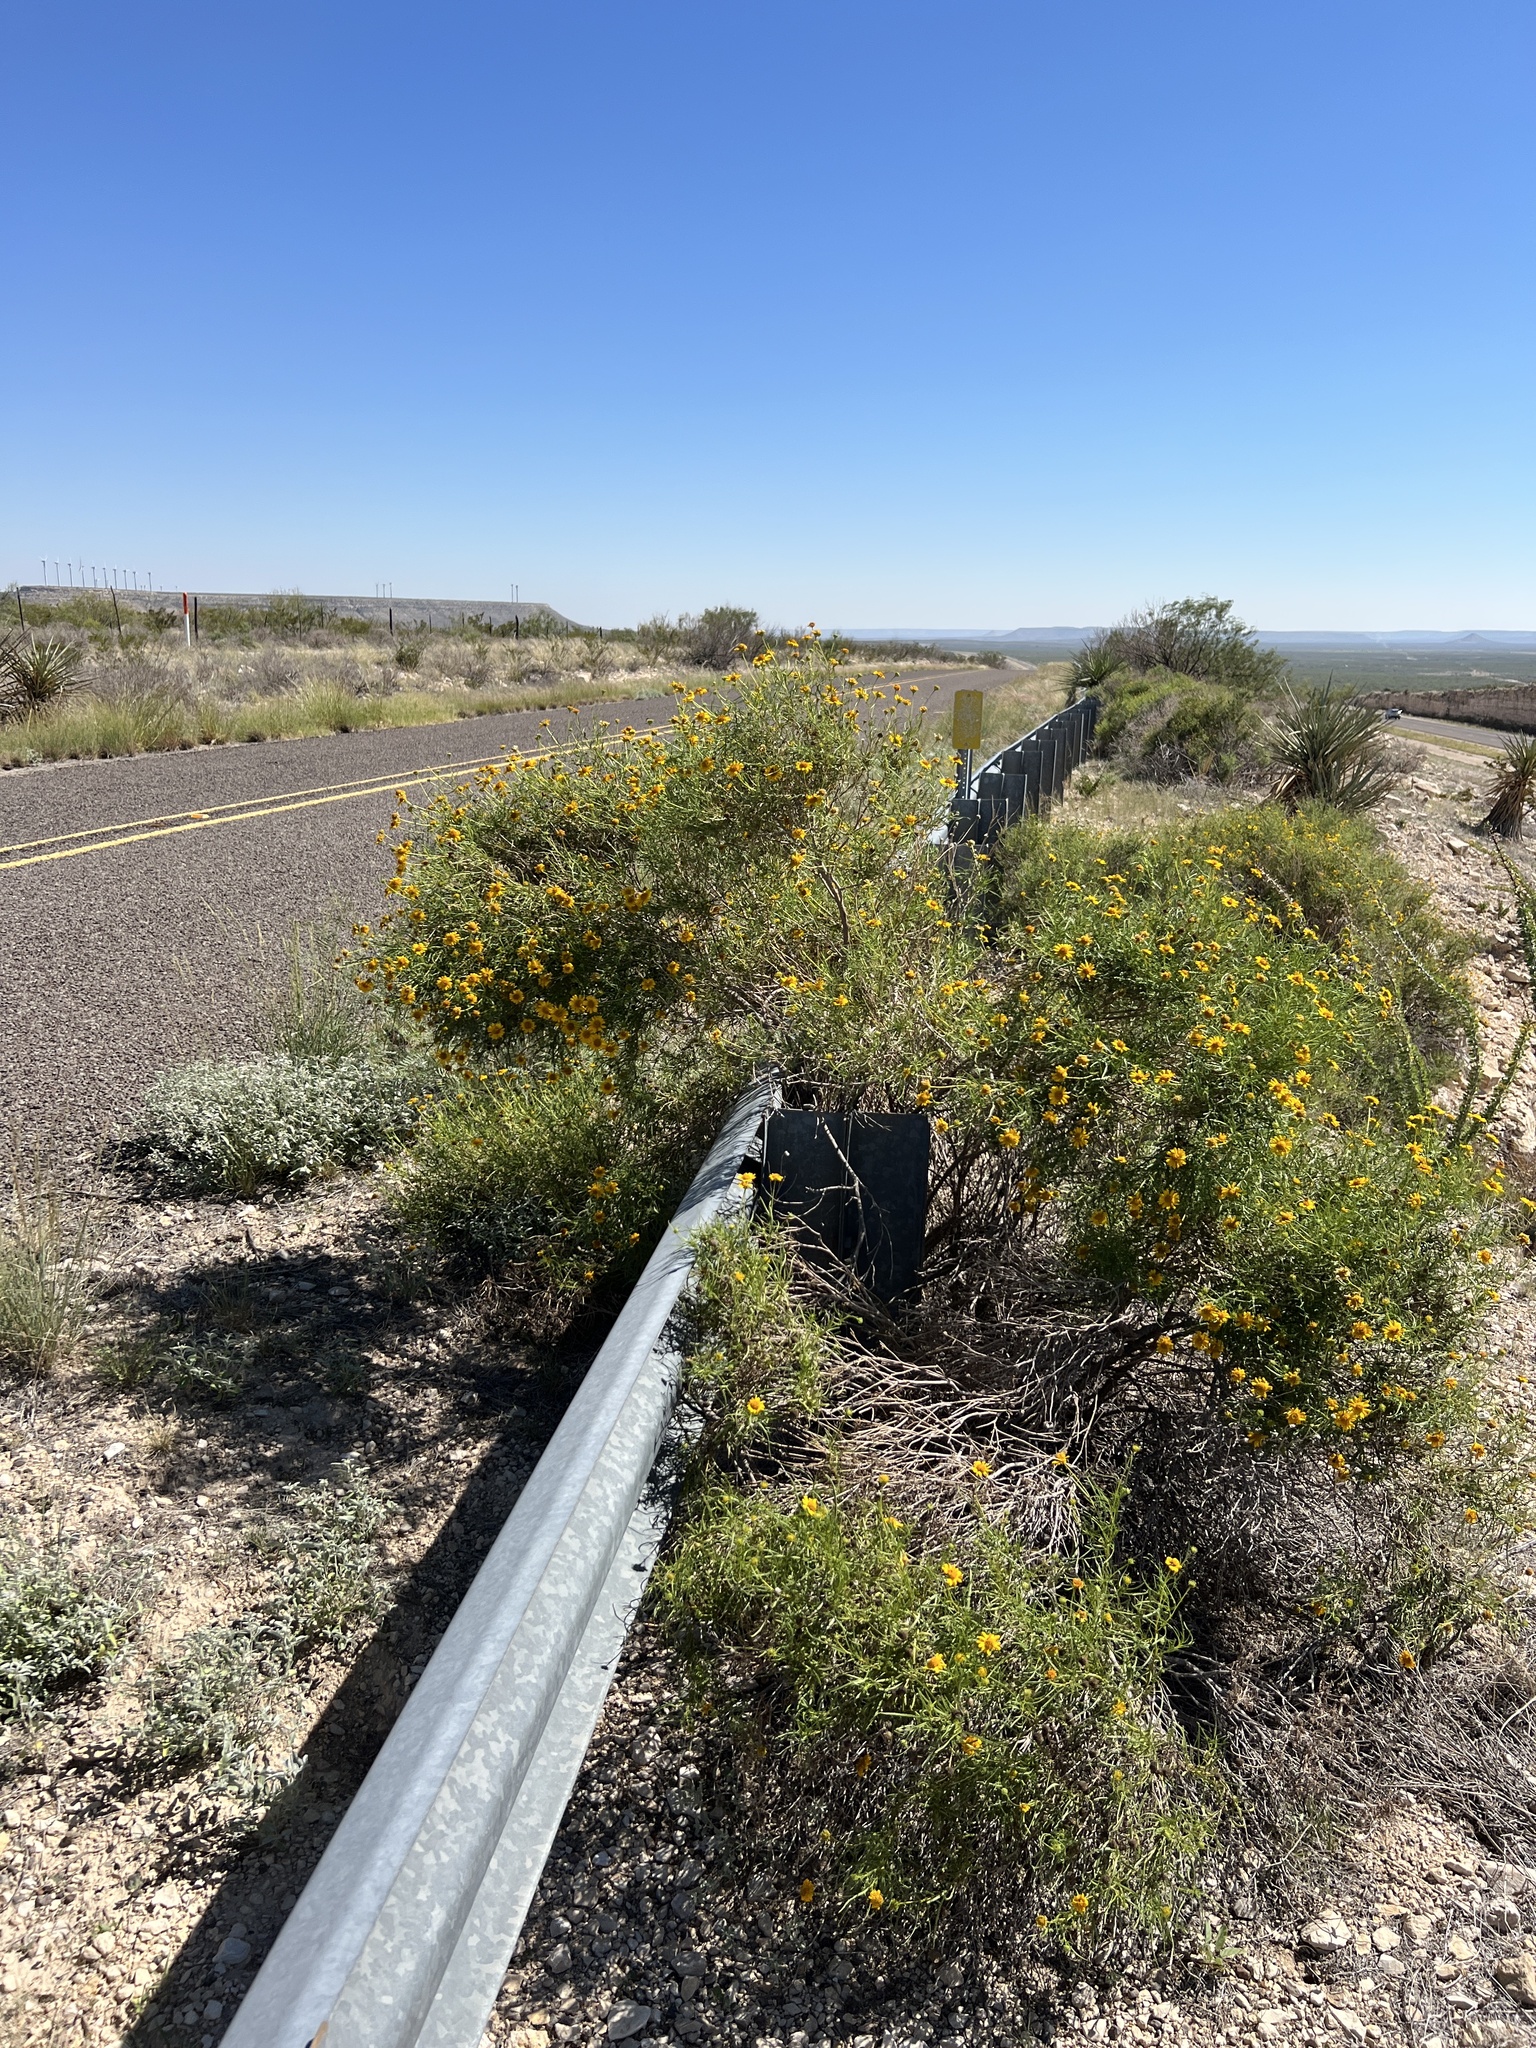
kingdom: Plantae
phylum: Tracheophyta
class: Magnoliopsida
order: Asterales
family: Asteraceae
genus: Sidneya
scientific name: Sidneya tenuifolia
